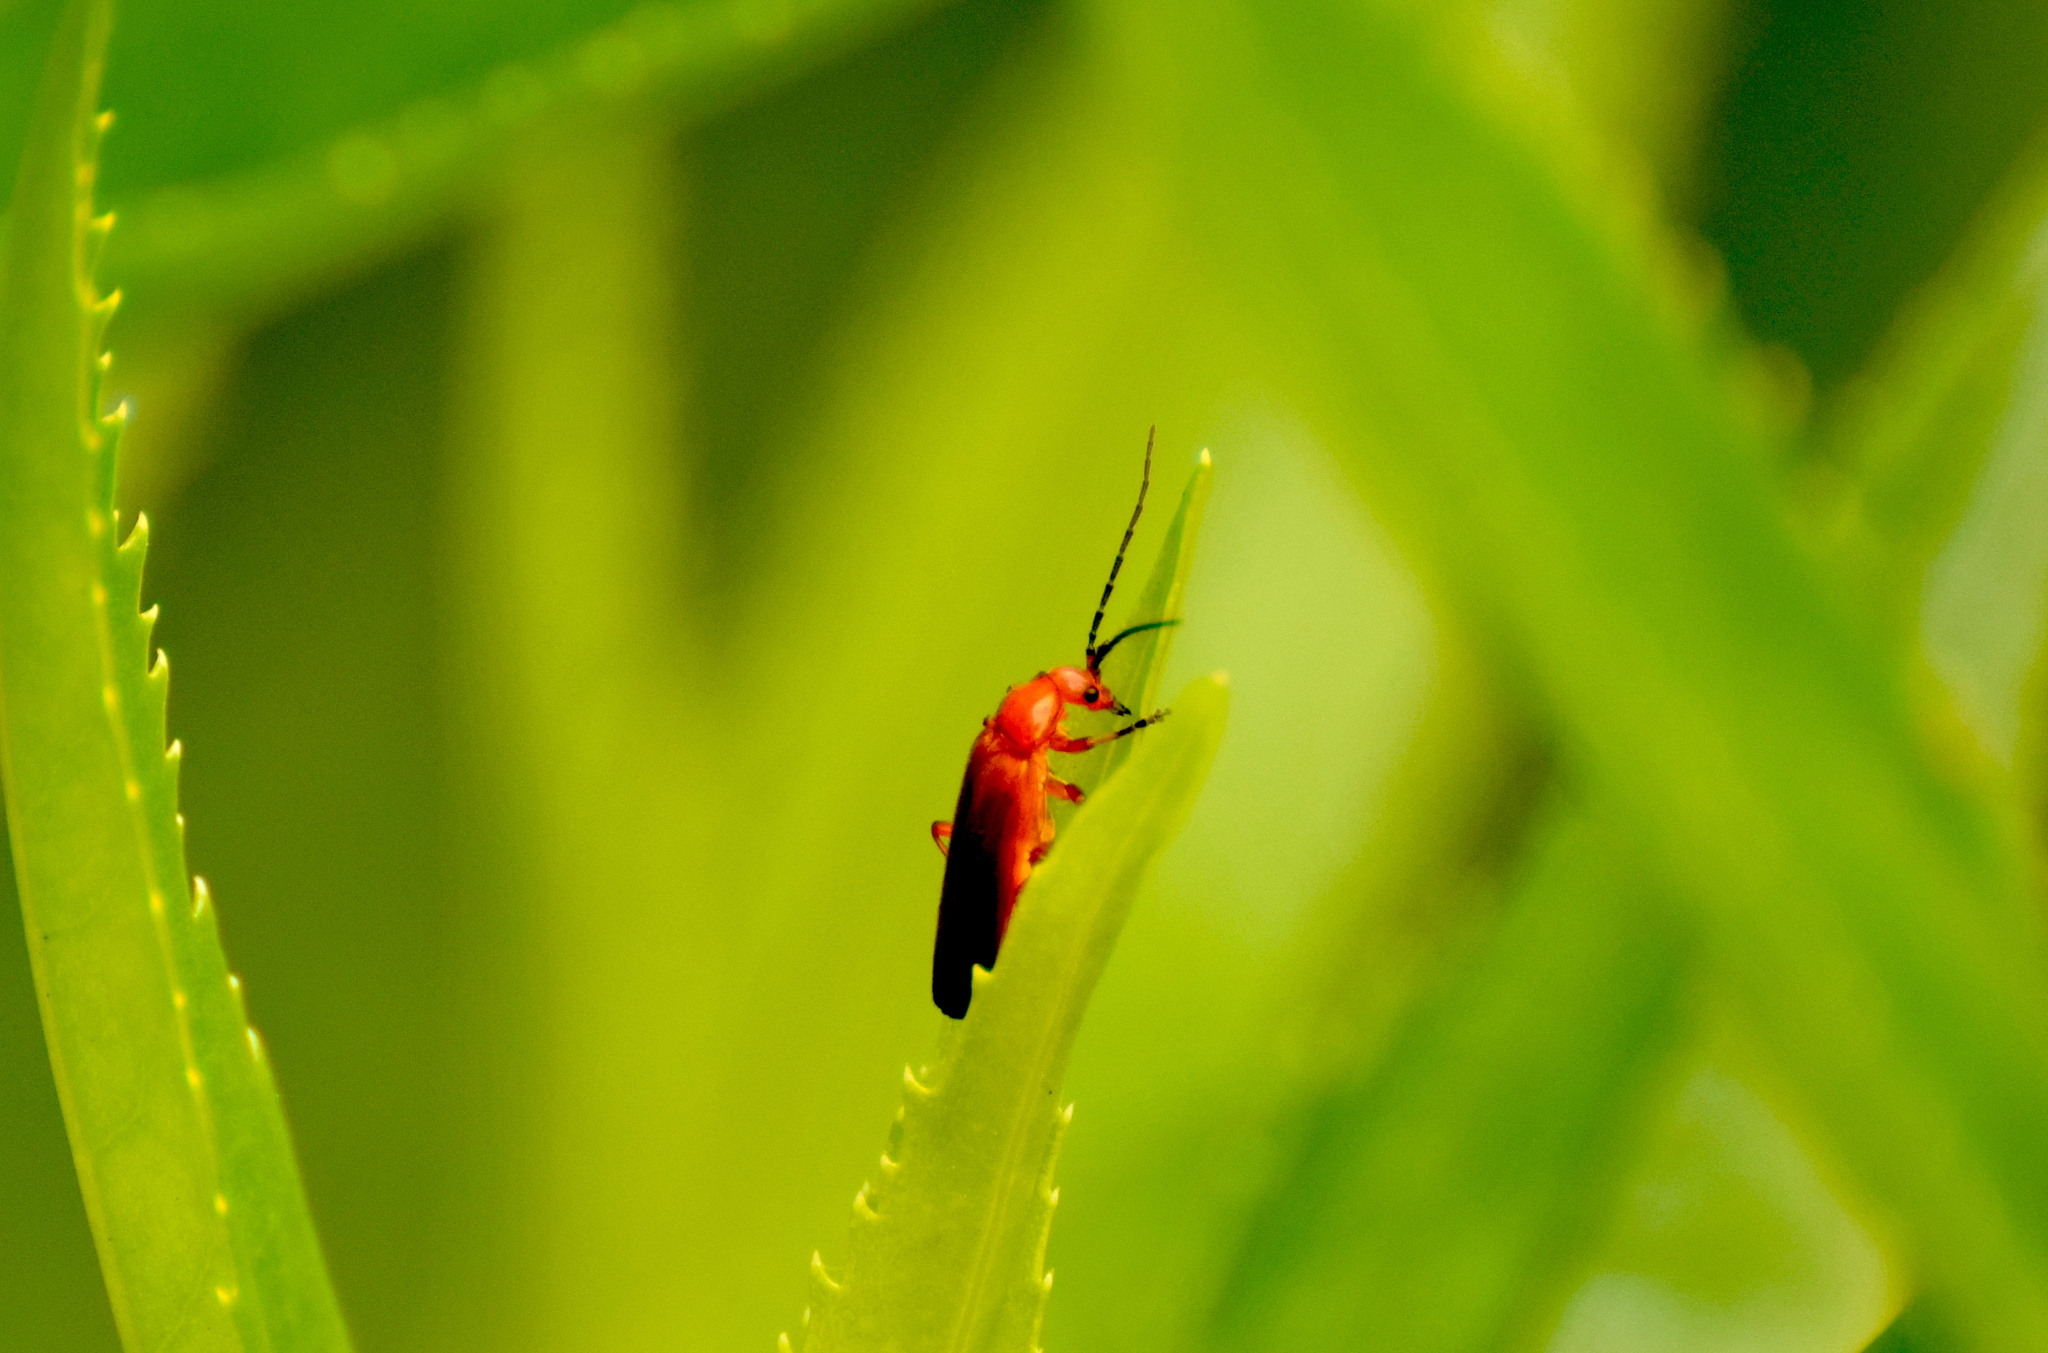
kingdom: Animalia
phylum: Arthropoda
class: Insecta
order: Coleoptera
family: Cantharidae
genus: Rhagonycha
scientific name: Rhagonycha fulva
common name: Common red soldier beetle
